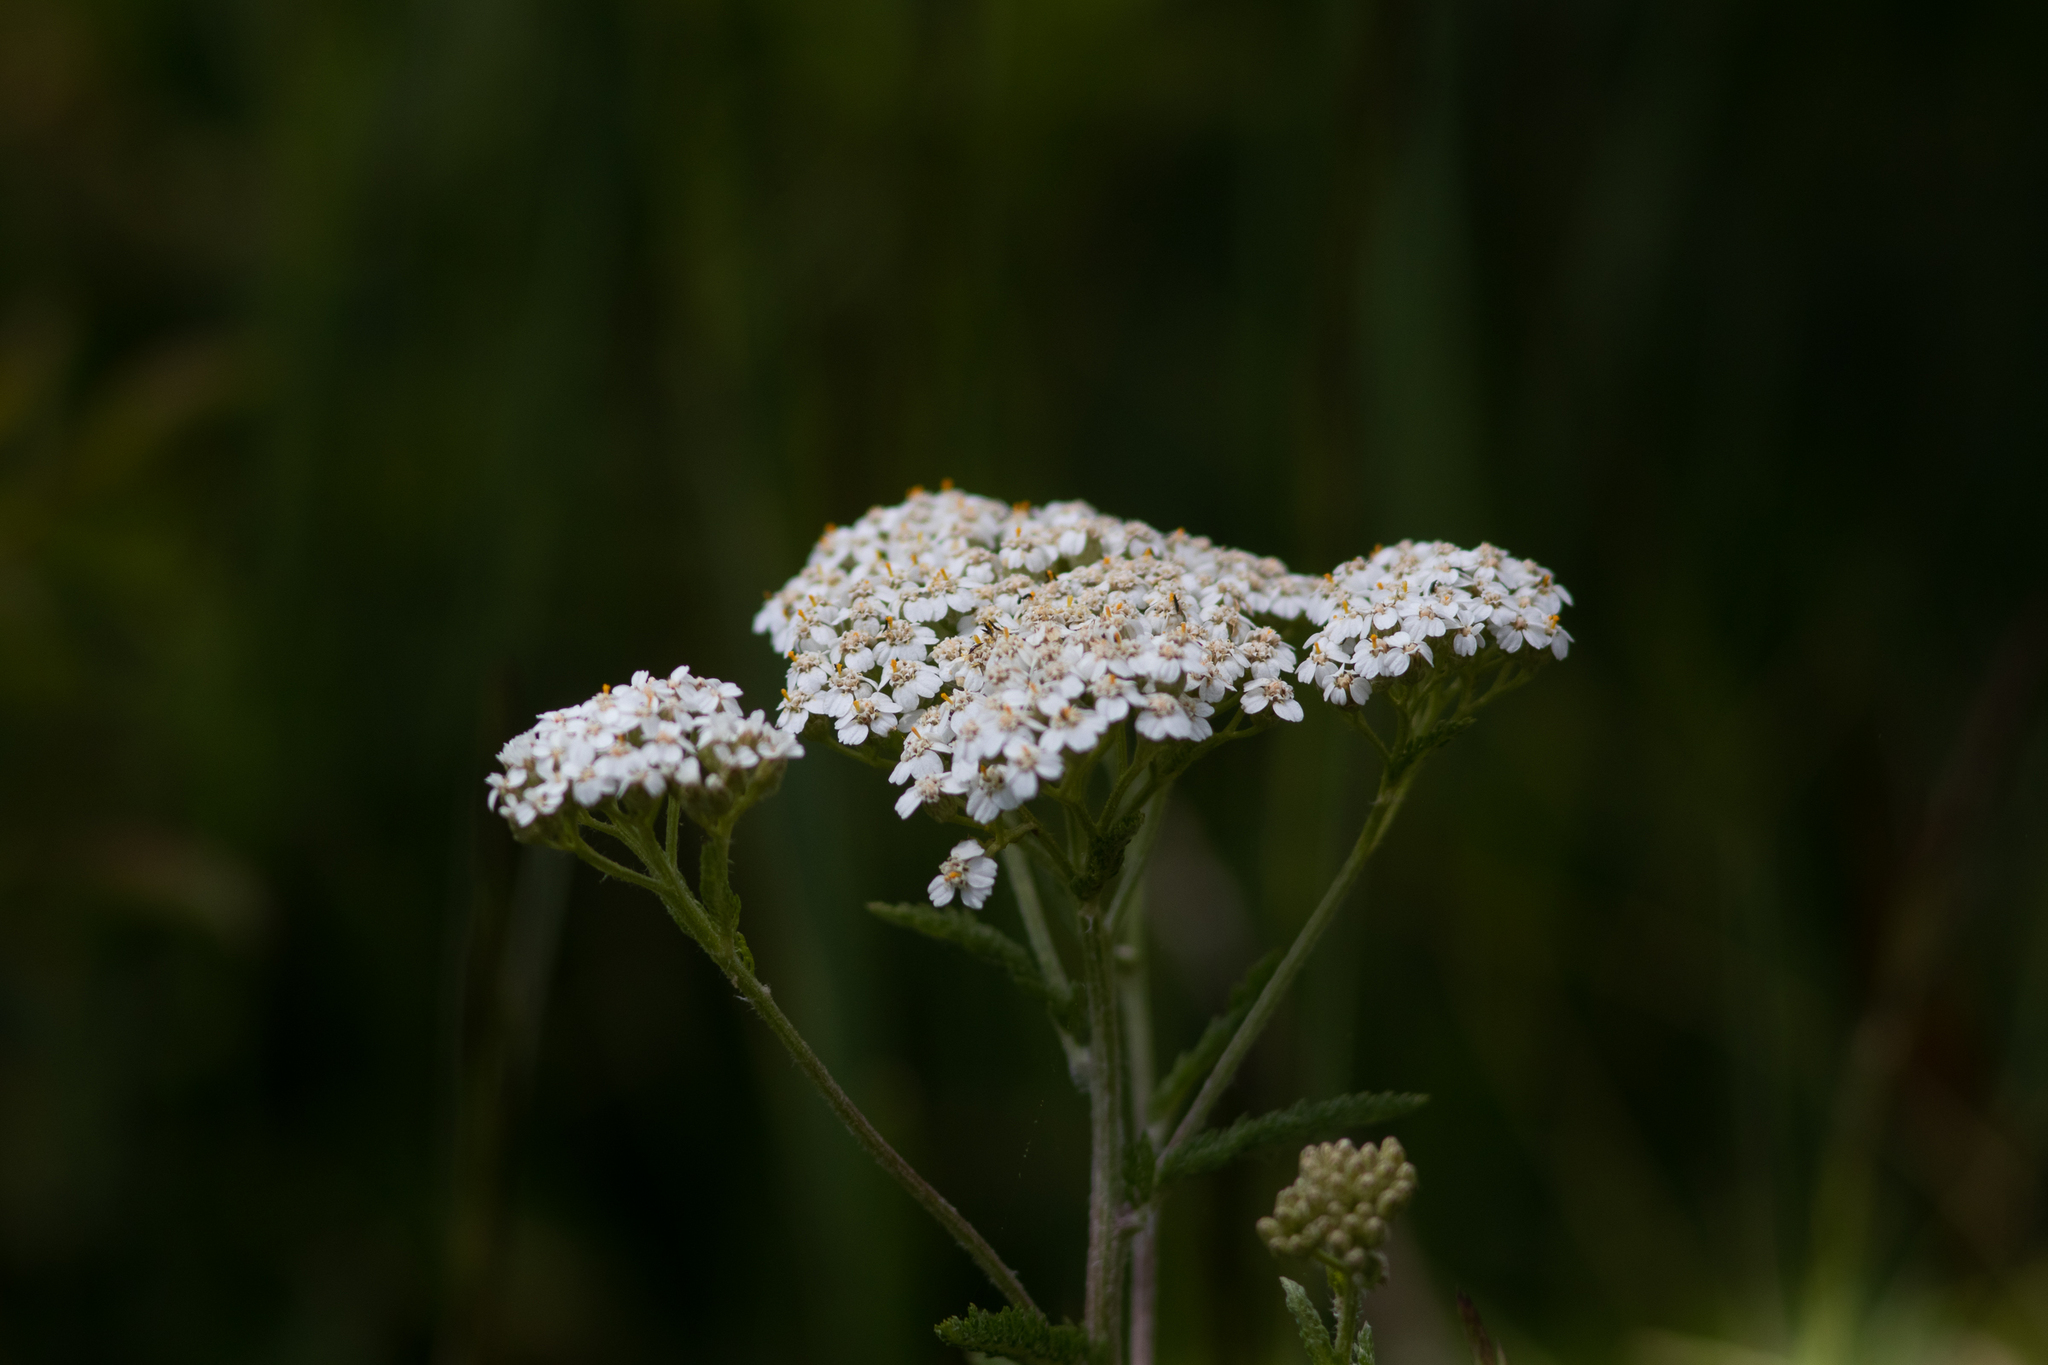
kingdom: Plantae
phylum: Tracheophyta
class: Magnoliopsida
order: Asterales
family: Asteraceae
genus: Achillea
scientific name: Achillea millefolium
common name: Yarrow
